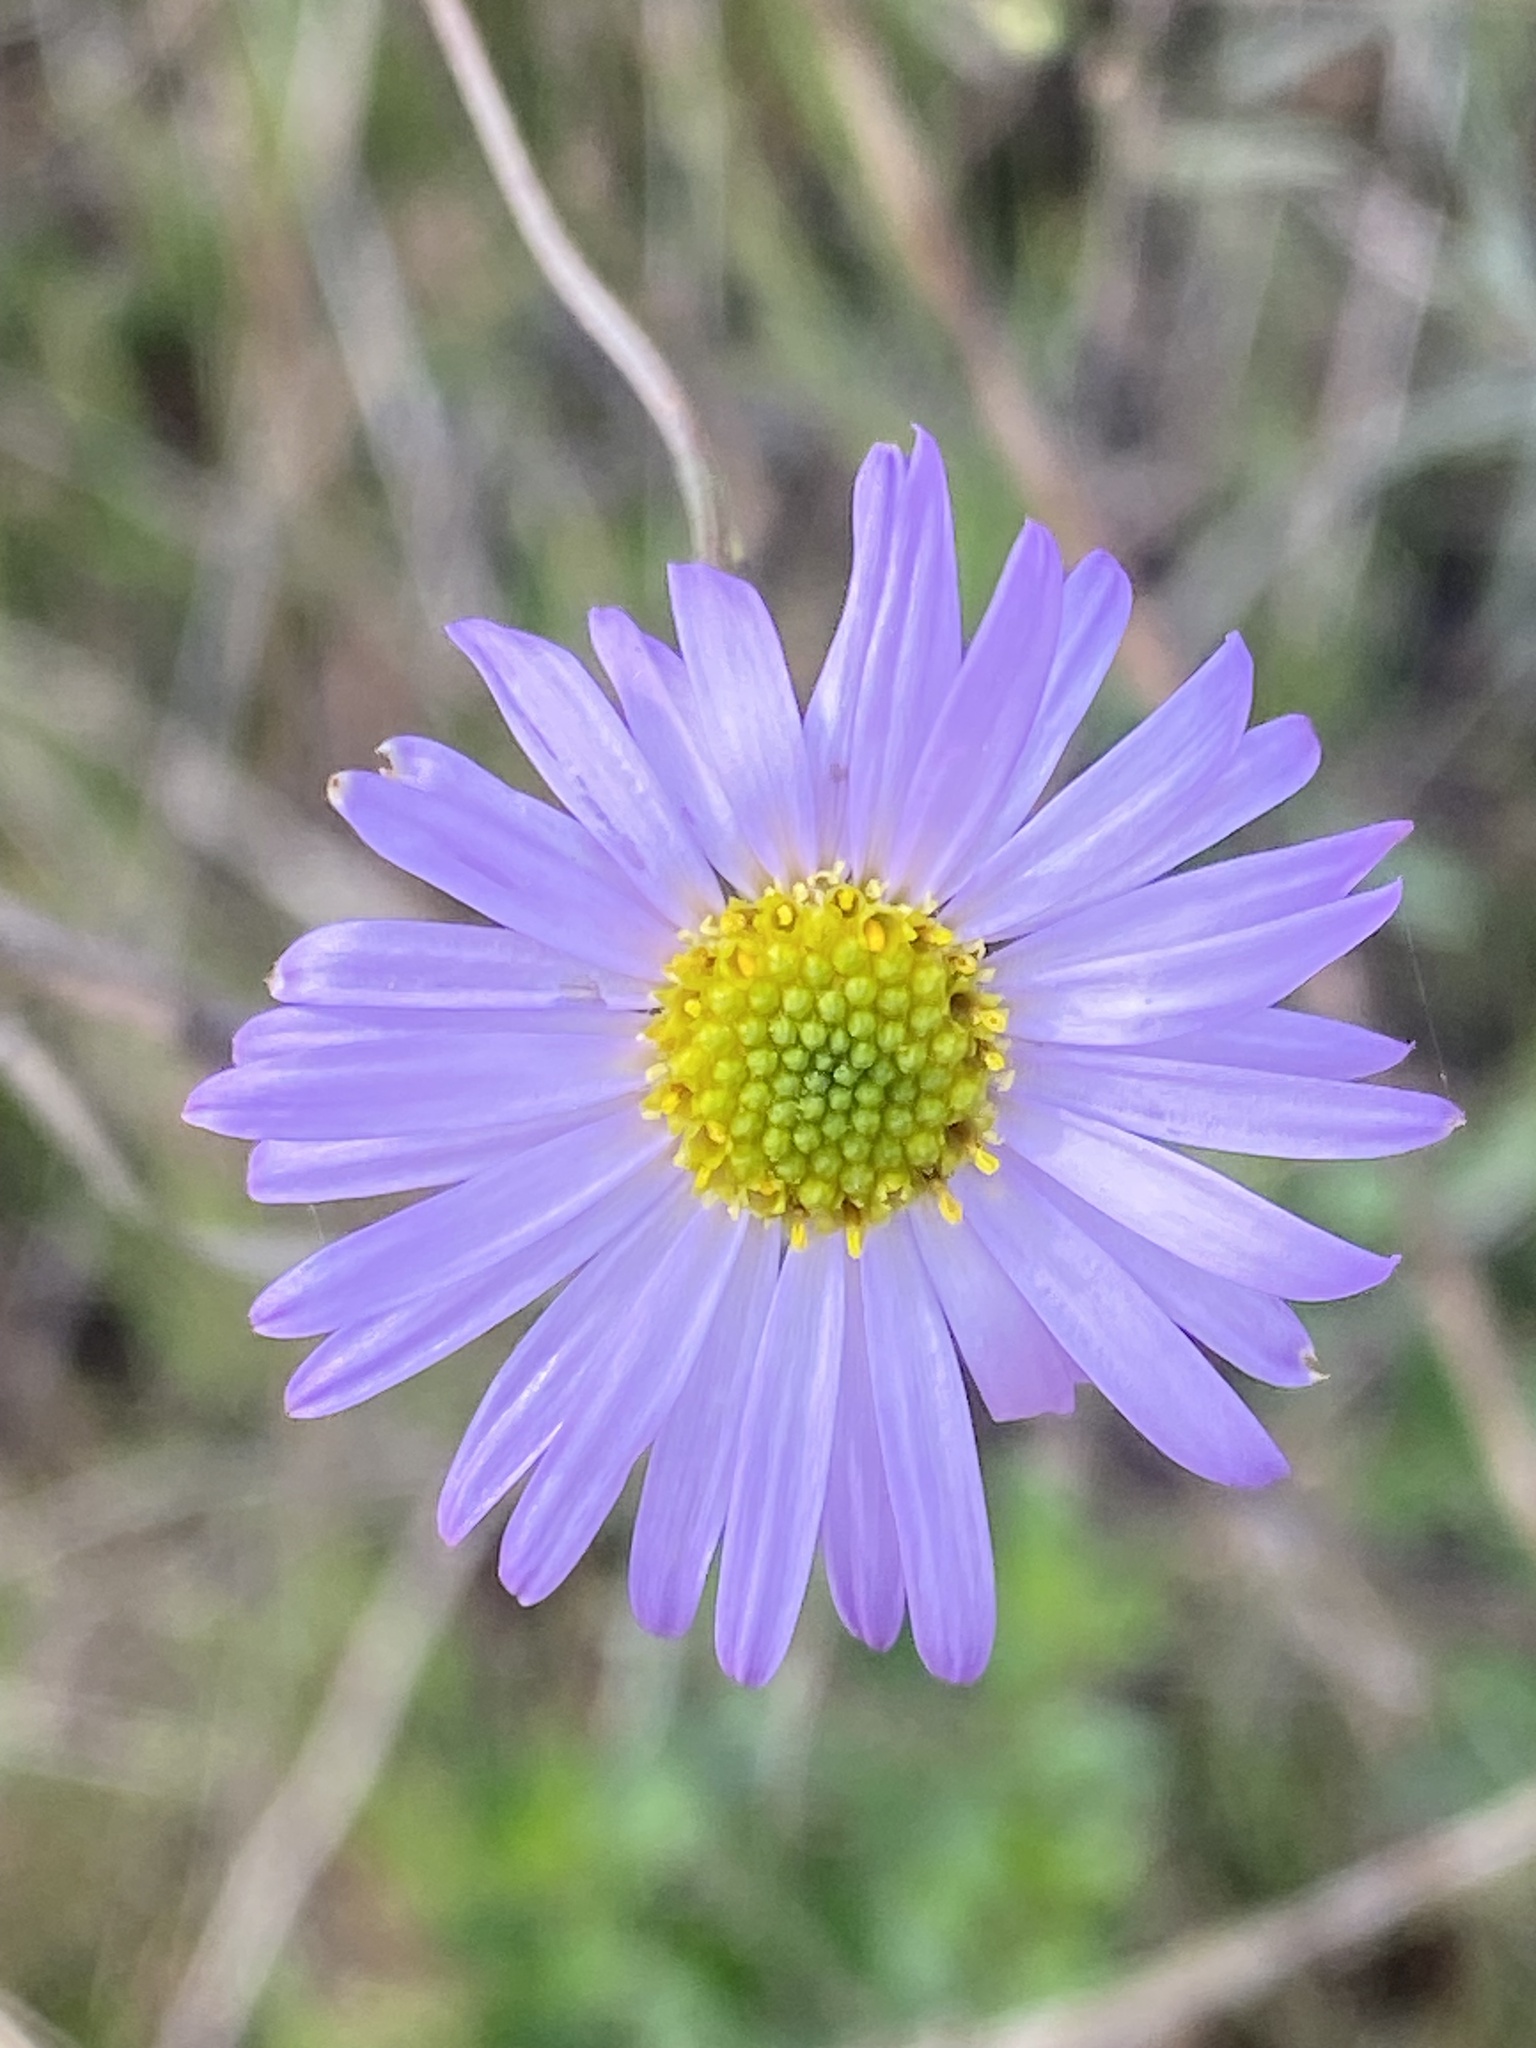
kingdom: Plantae
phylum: Tracheophyta
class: Magnoliopsida
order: Asterales
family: Asteraceae
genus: Erigeron
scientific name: Erigeron foliosus
